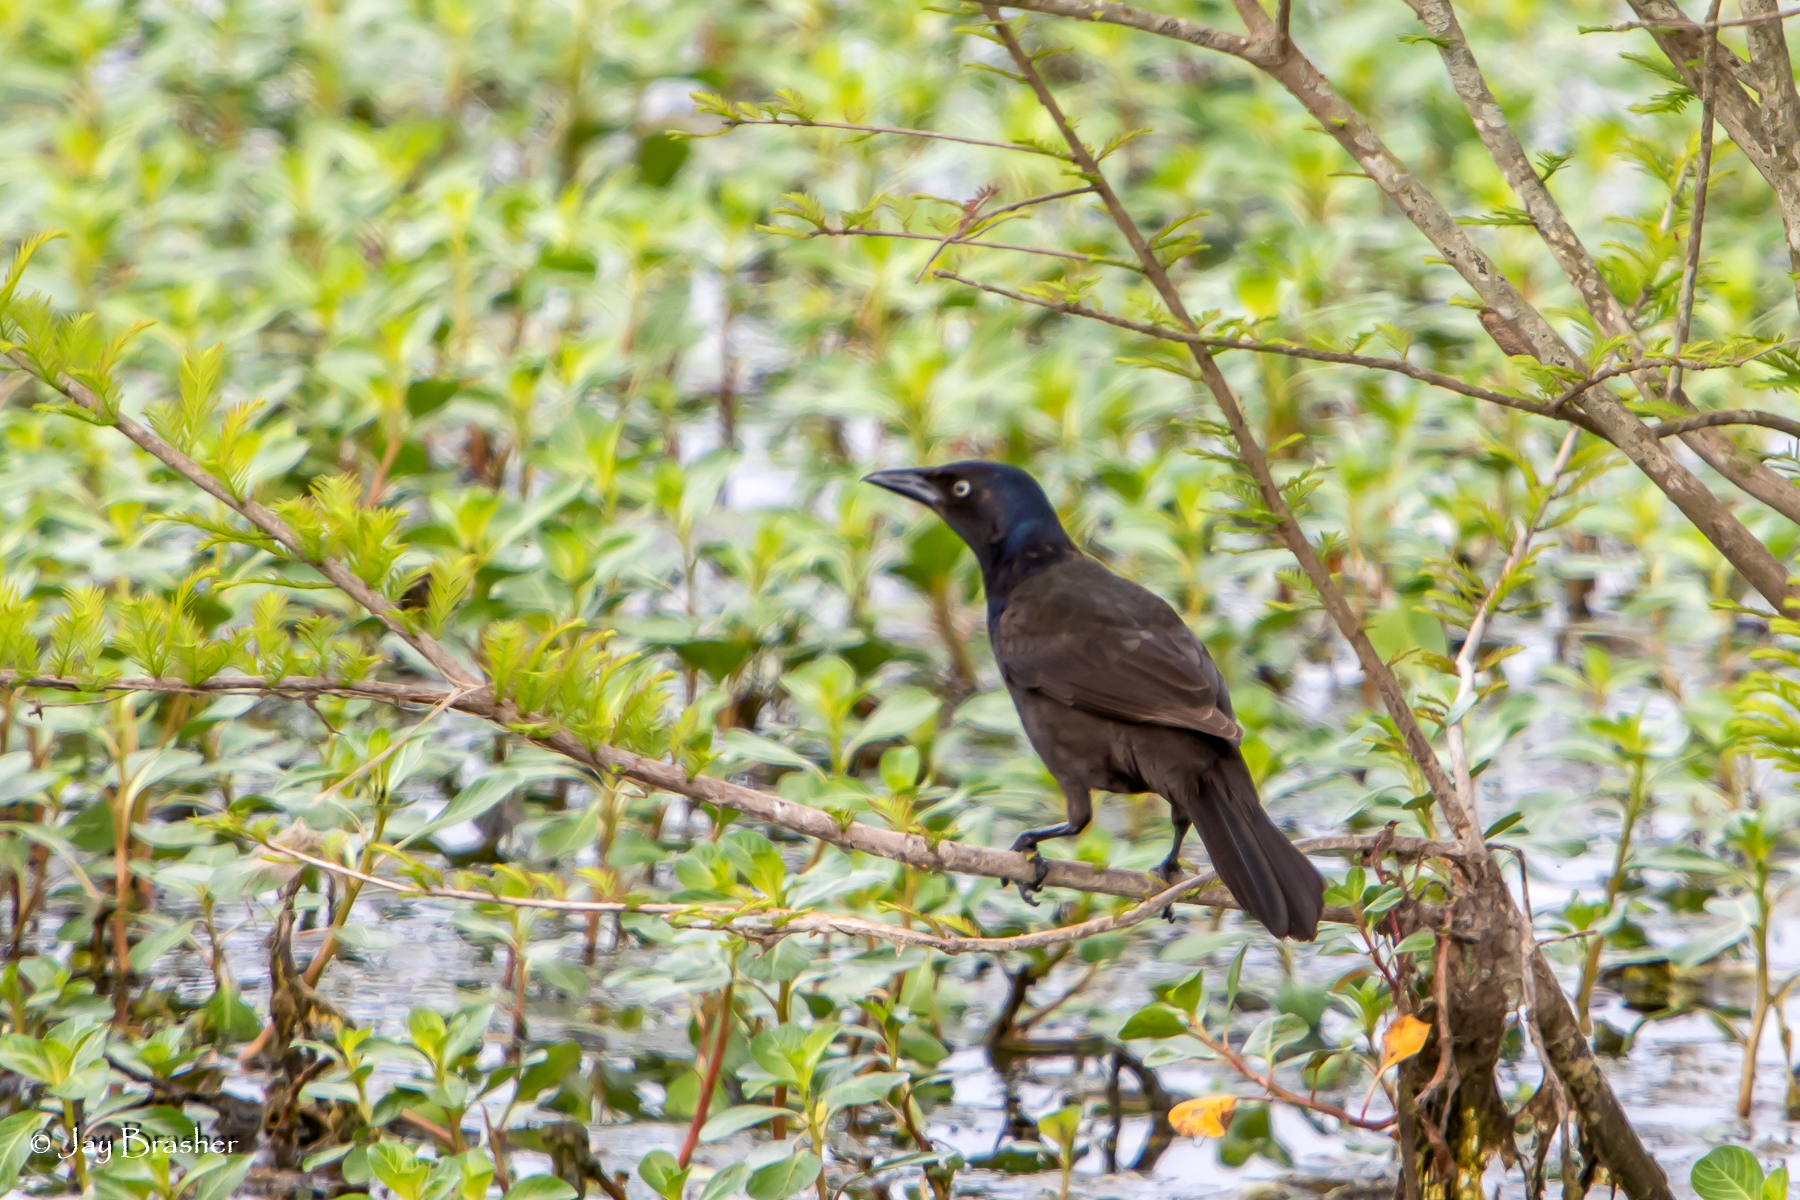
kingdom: Animalia
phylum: Chordata
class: Aves
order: Passeriformes
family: Icteridae
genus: Quiscalus
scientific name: Quiscalus quiscula
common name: Common grackle
